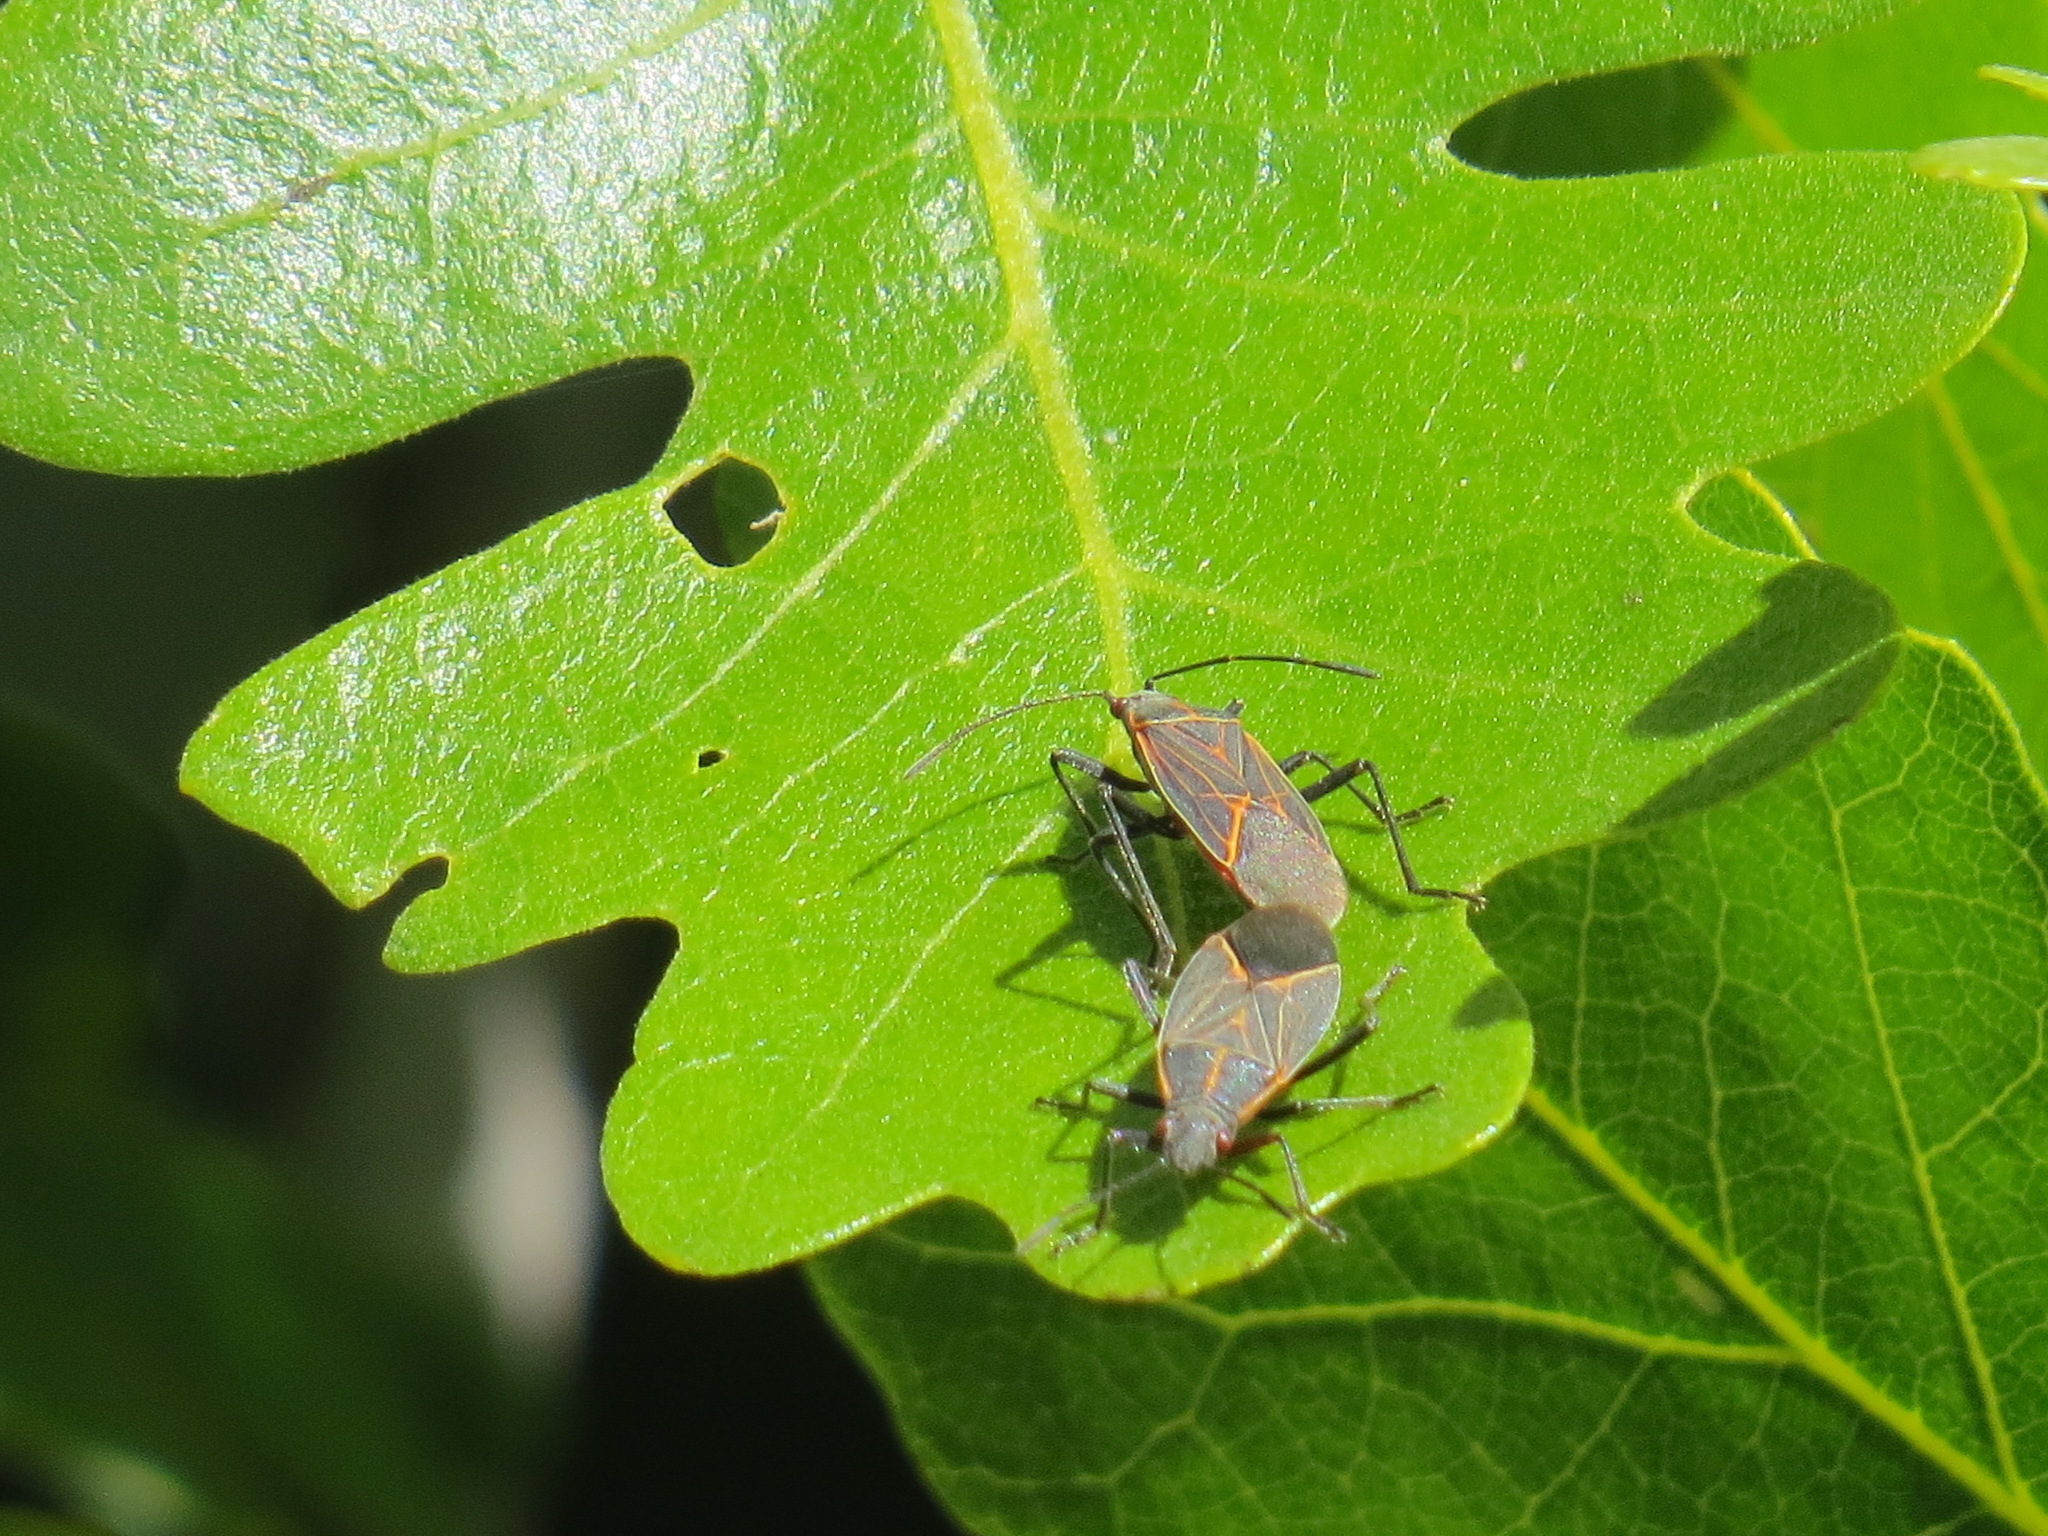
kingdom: Animalia
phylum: Arthropoda
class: Insecta
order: Hemiptera
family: Rhopalidae
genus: Boisea
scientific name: Boisea rubrolineata
